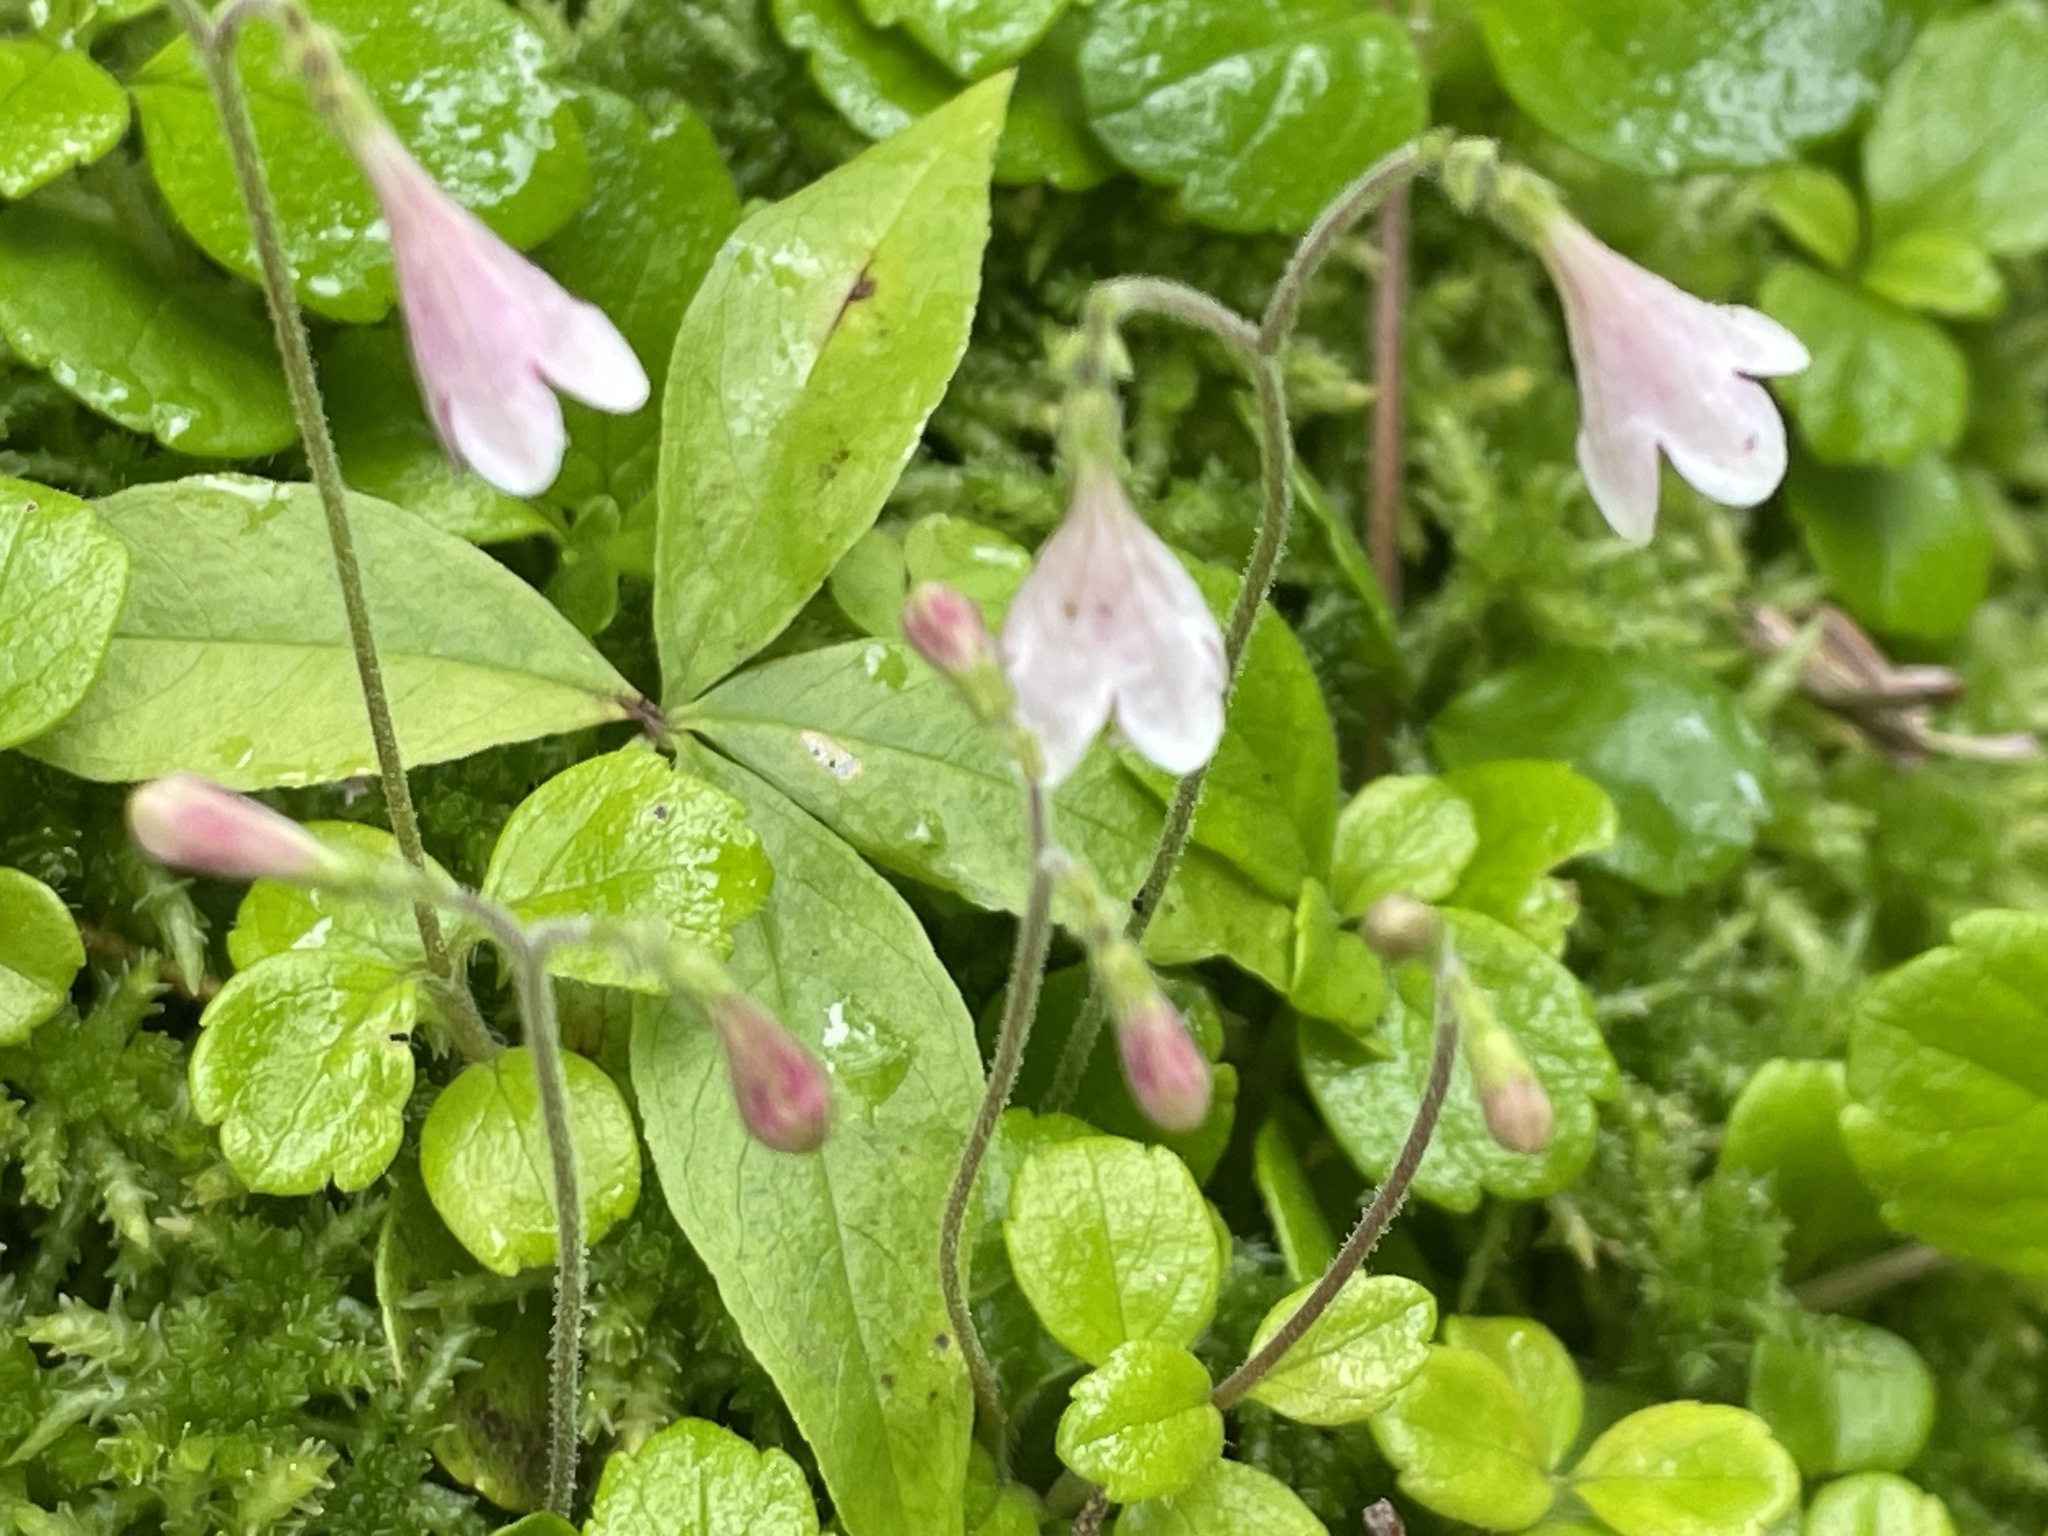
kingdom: Plantae
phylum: Tracheophyta
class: Magnoliopsida
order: Dipsacales
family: Caprifoliaceae
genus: Linnaea
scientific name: Linnaea borealis
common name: Twinflower
